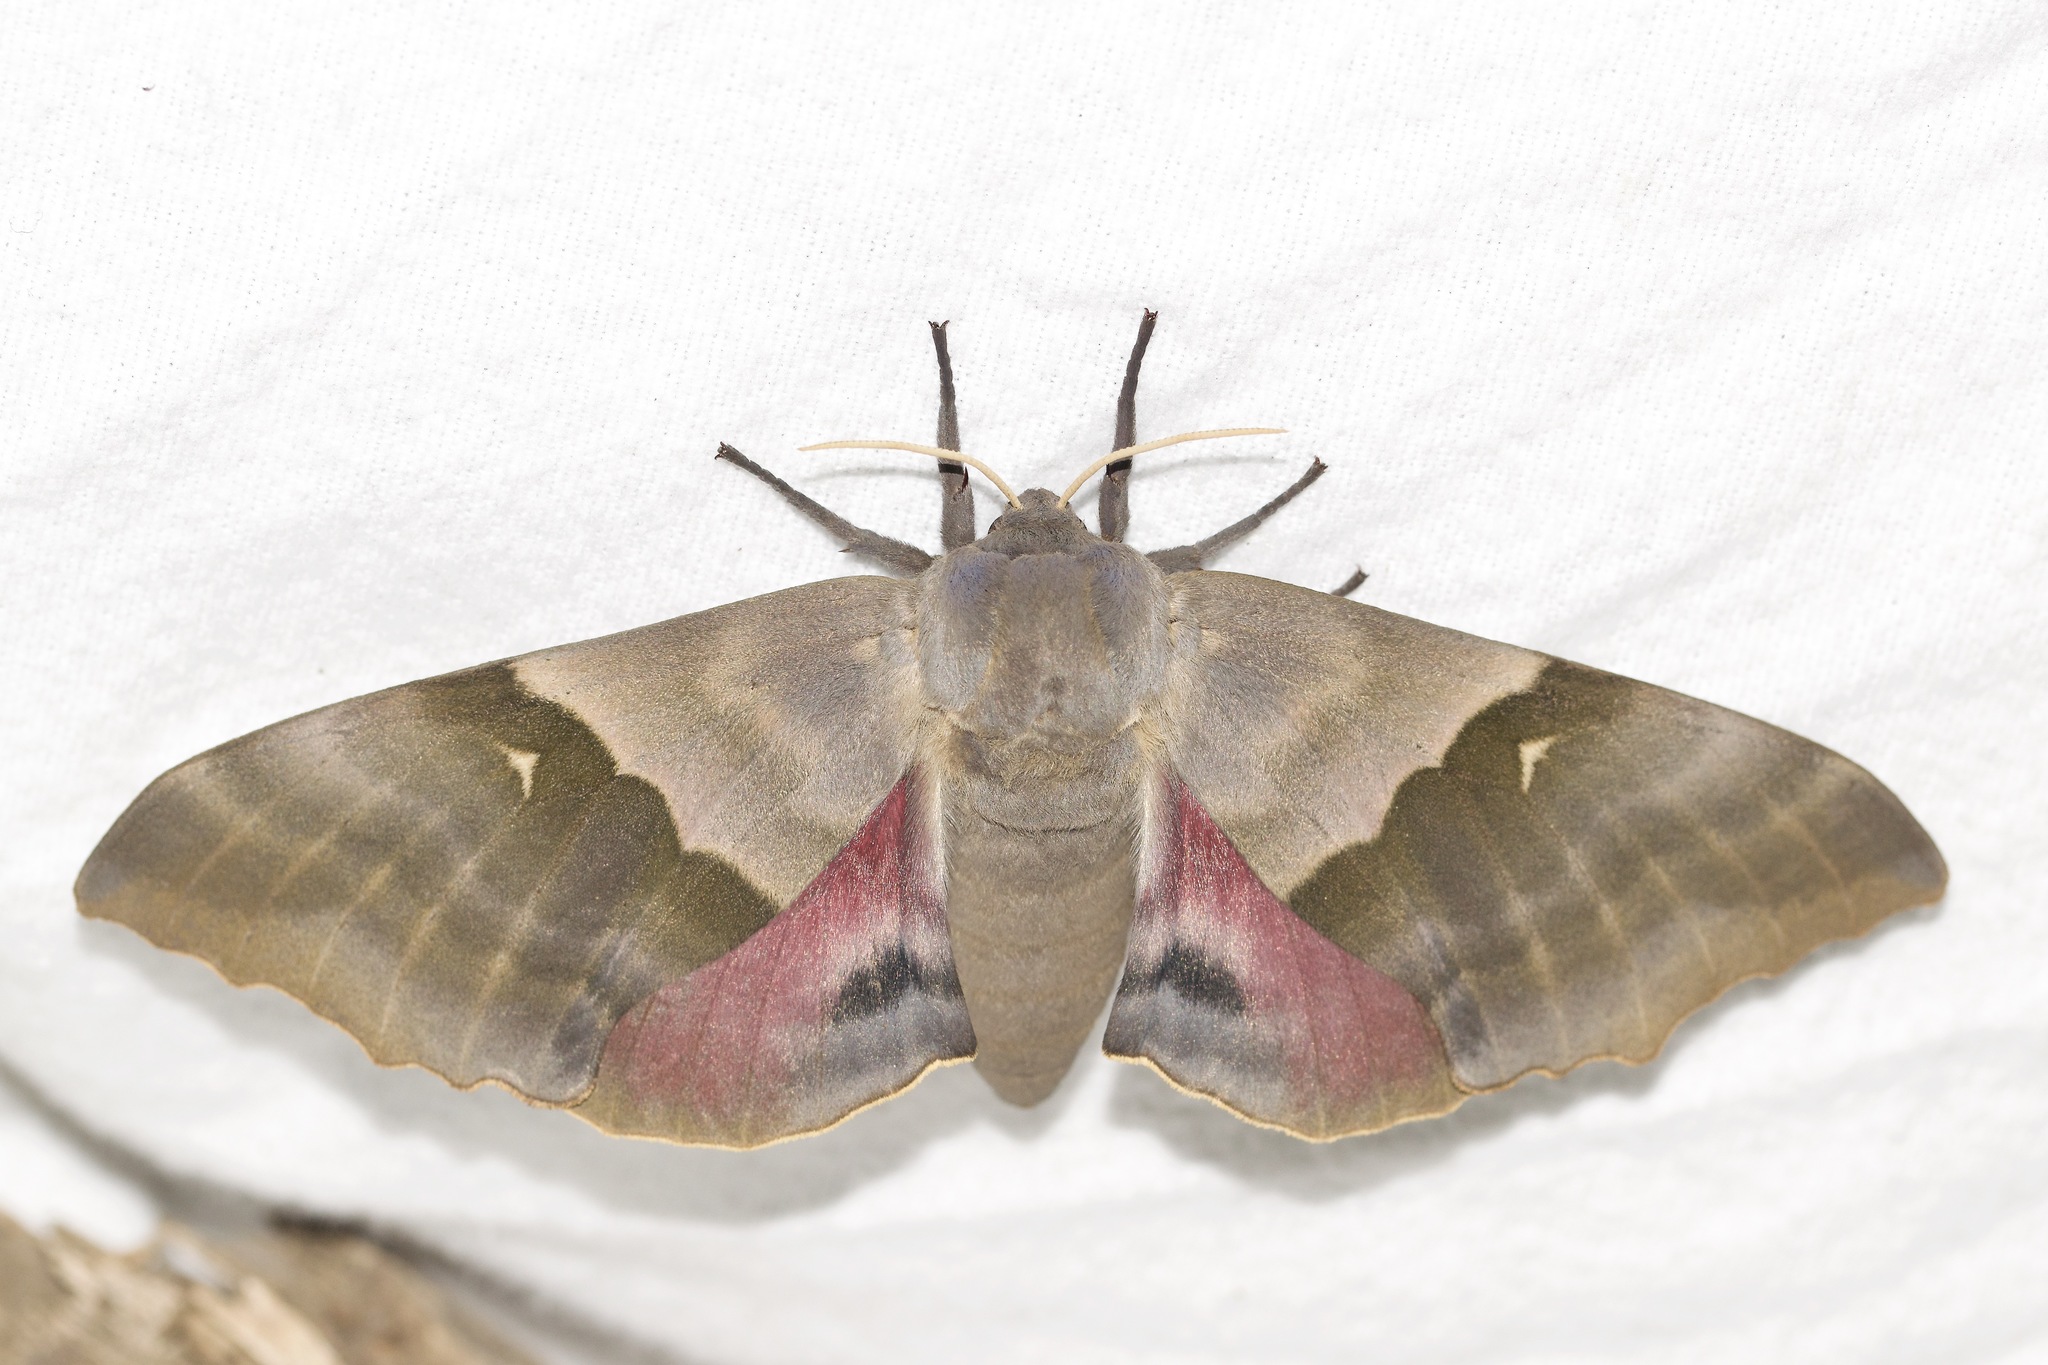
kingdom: Animalia
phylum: Arthropoda
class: Insecta
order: Lepidoptera
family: Sphingidae
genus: Pachysphinx
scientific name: Pachysphinx modesta
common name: Big poplar sphinx
